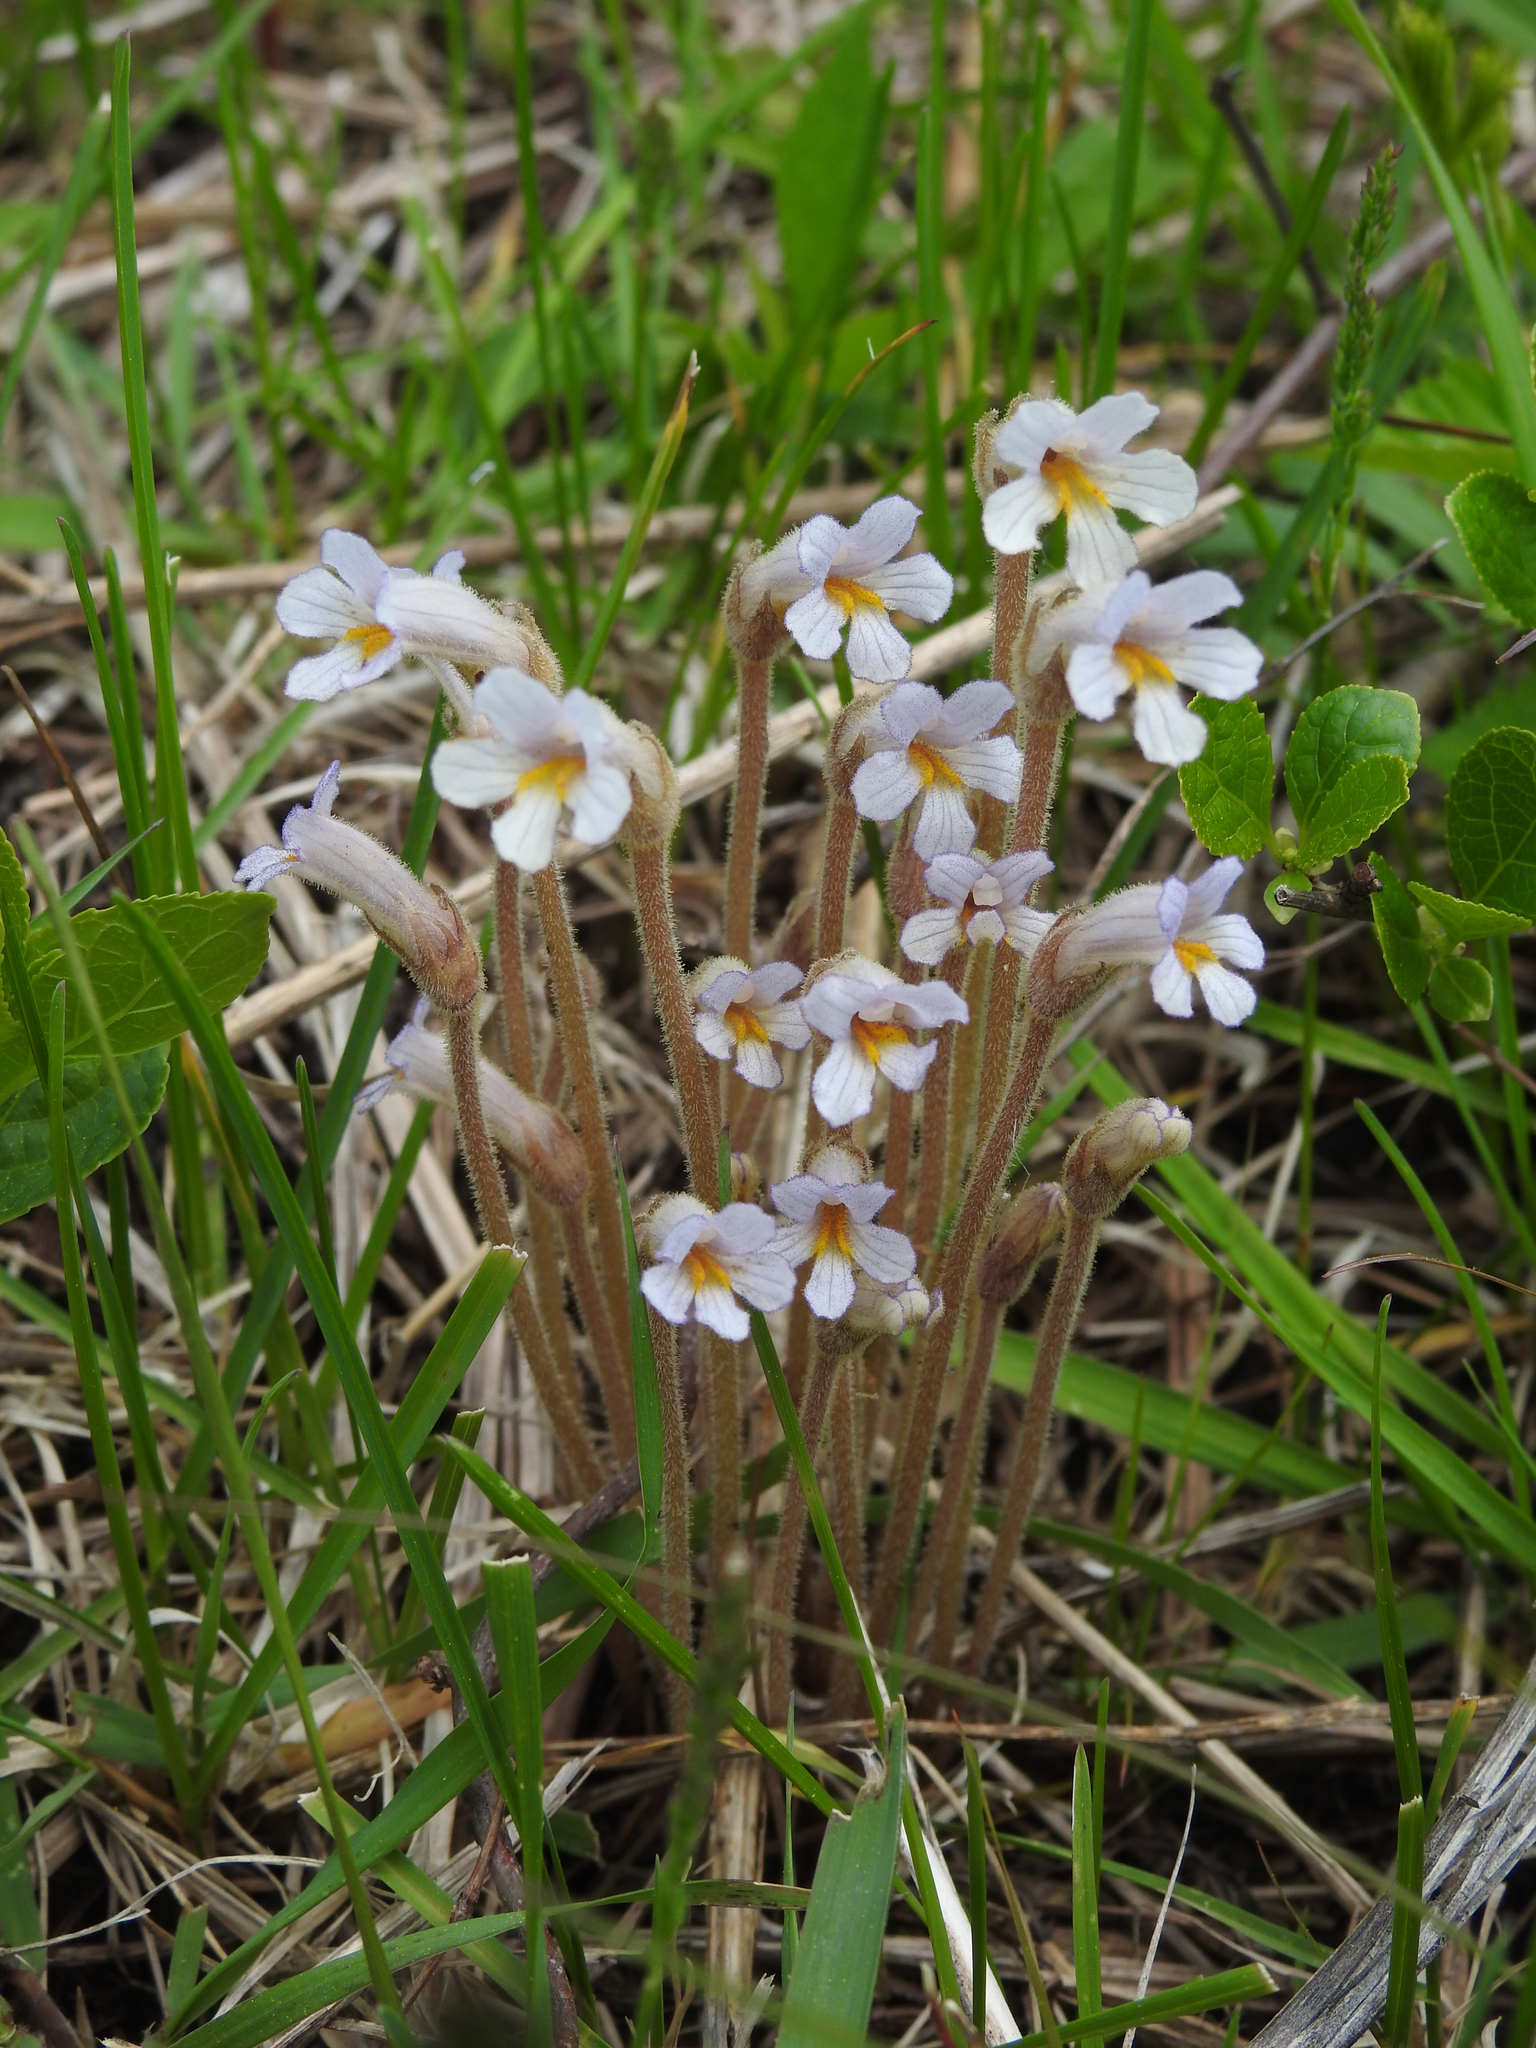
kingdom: Plantae
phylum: Tracheophyta
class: Magnoliopsida
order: Lamiales
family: Orobanchaceae
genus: Aphyllon
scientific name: Aphyllon uniflorum
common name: One-flowered broomrape
